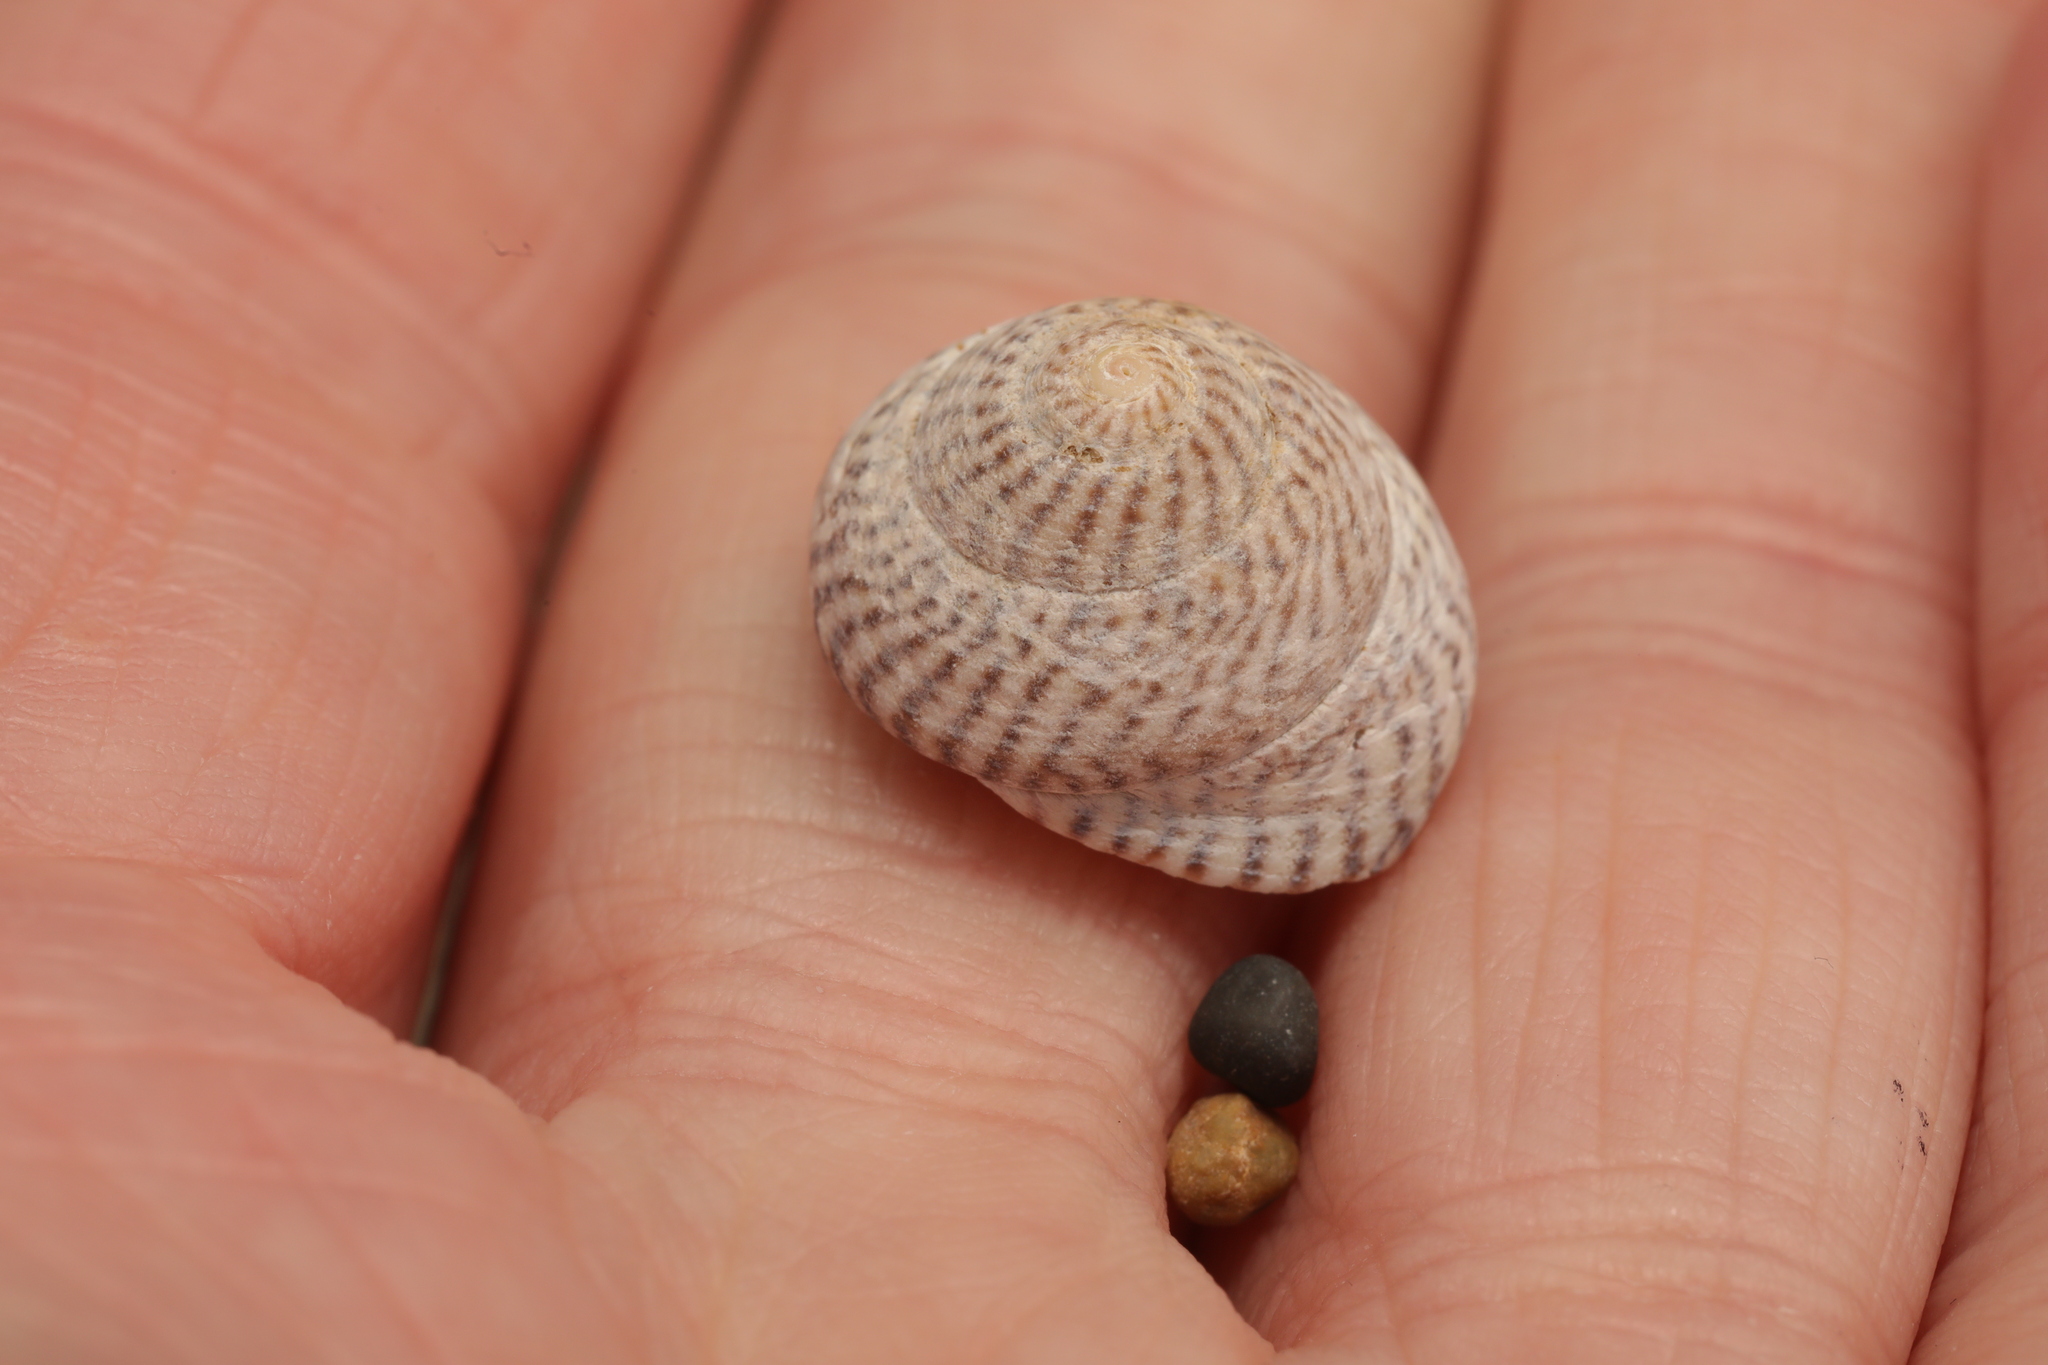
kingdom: Animalia
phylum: Mollusca
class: Gastropoda
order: Trochida
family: Trochidae
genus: Steromphala
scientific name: Steromphala cineraria
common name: Grey top shell
